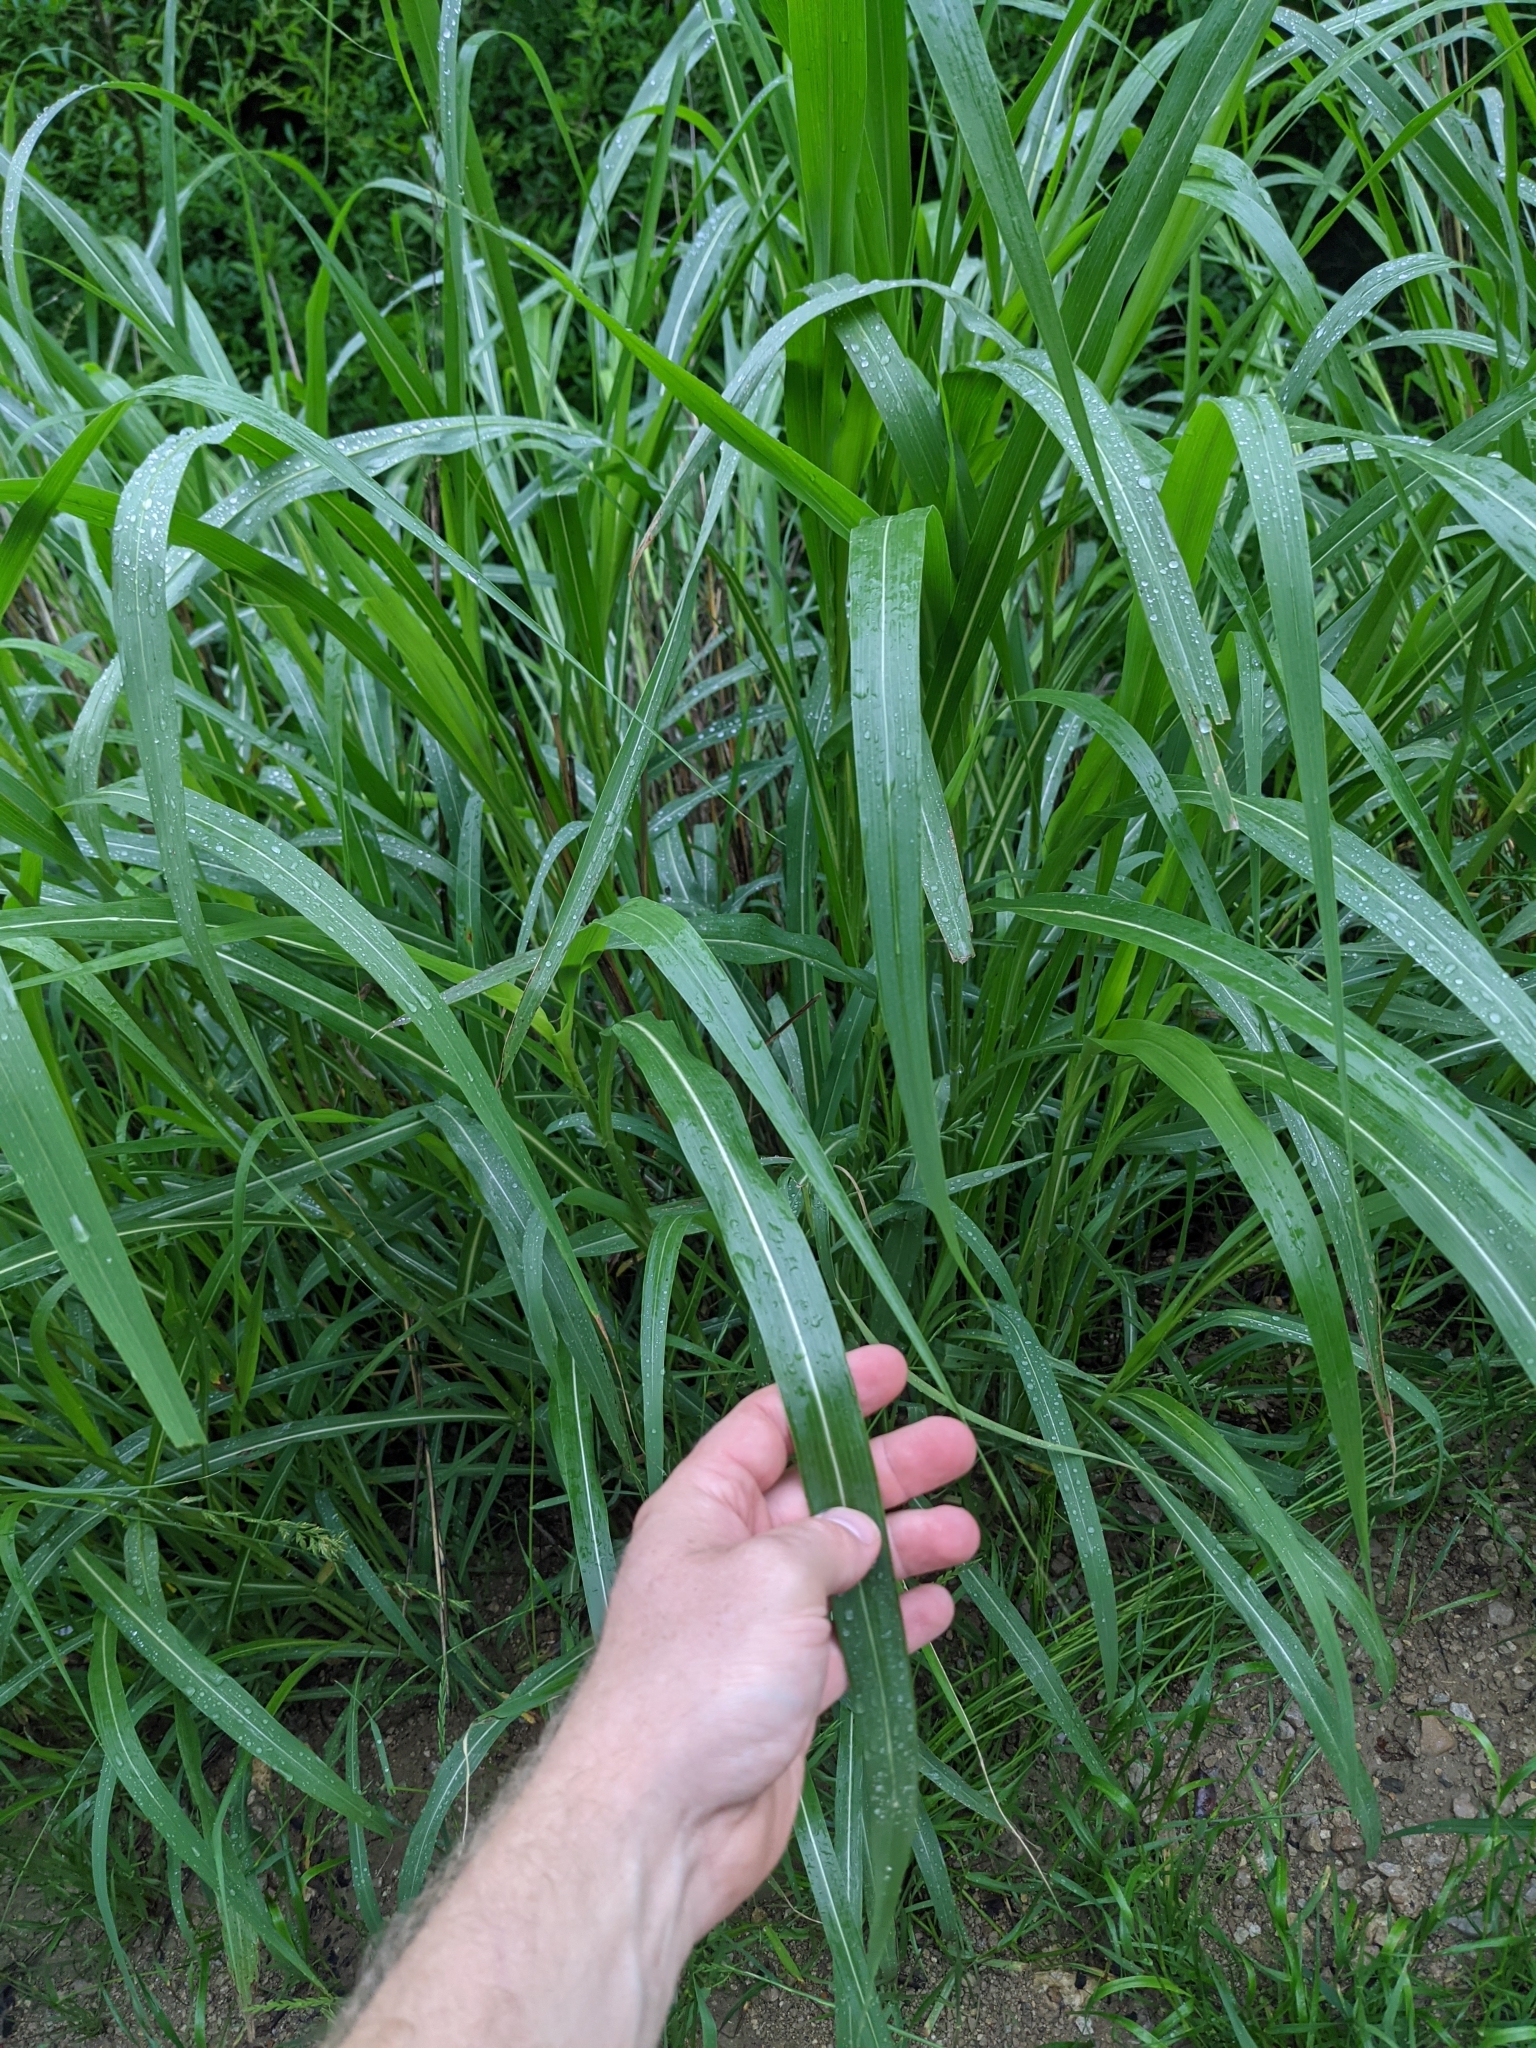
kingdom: Plantae
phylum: Tracheophyta
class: Liliopsida
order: Poales
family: Poaceae
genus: Sorghum
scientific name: Sorghum halepense
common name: Johnson-grass
